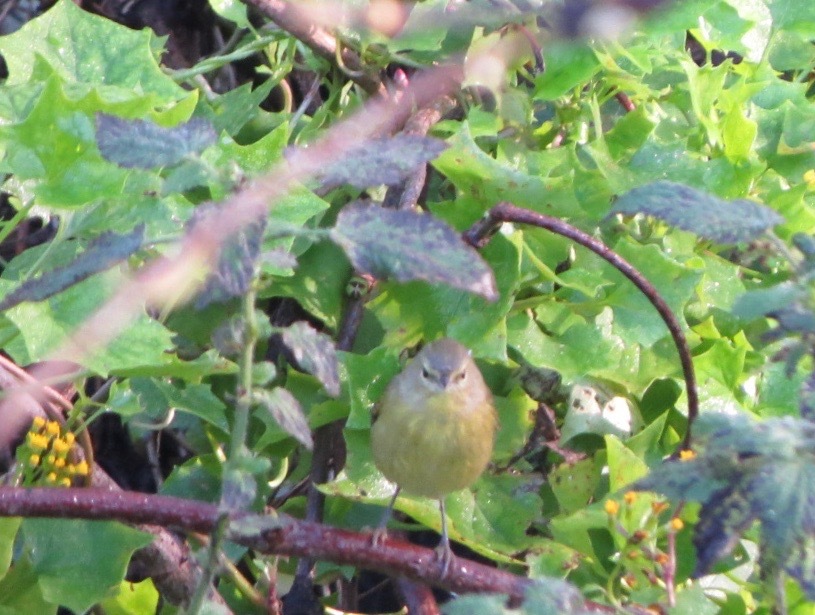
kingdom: Animalia
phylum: Chordata
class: Aves
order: Passeriformes
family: Parulidae
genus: Leiothlypis
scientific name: Leiothlypis celata
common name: Orange-crowned warbler
